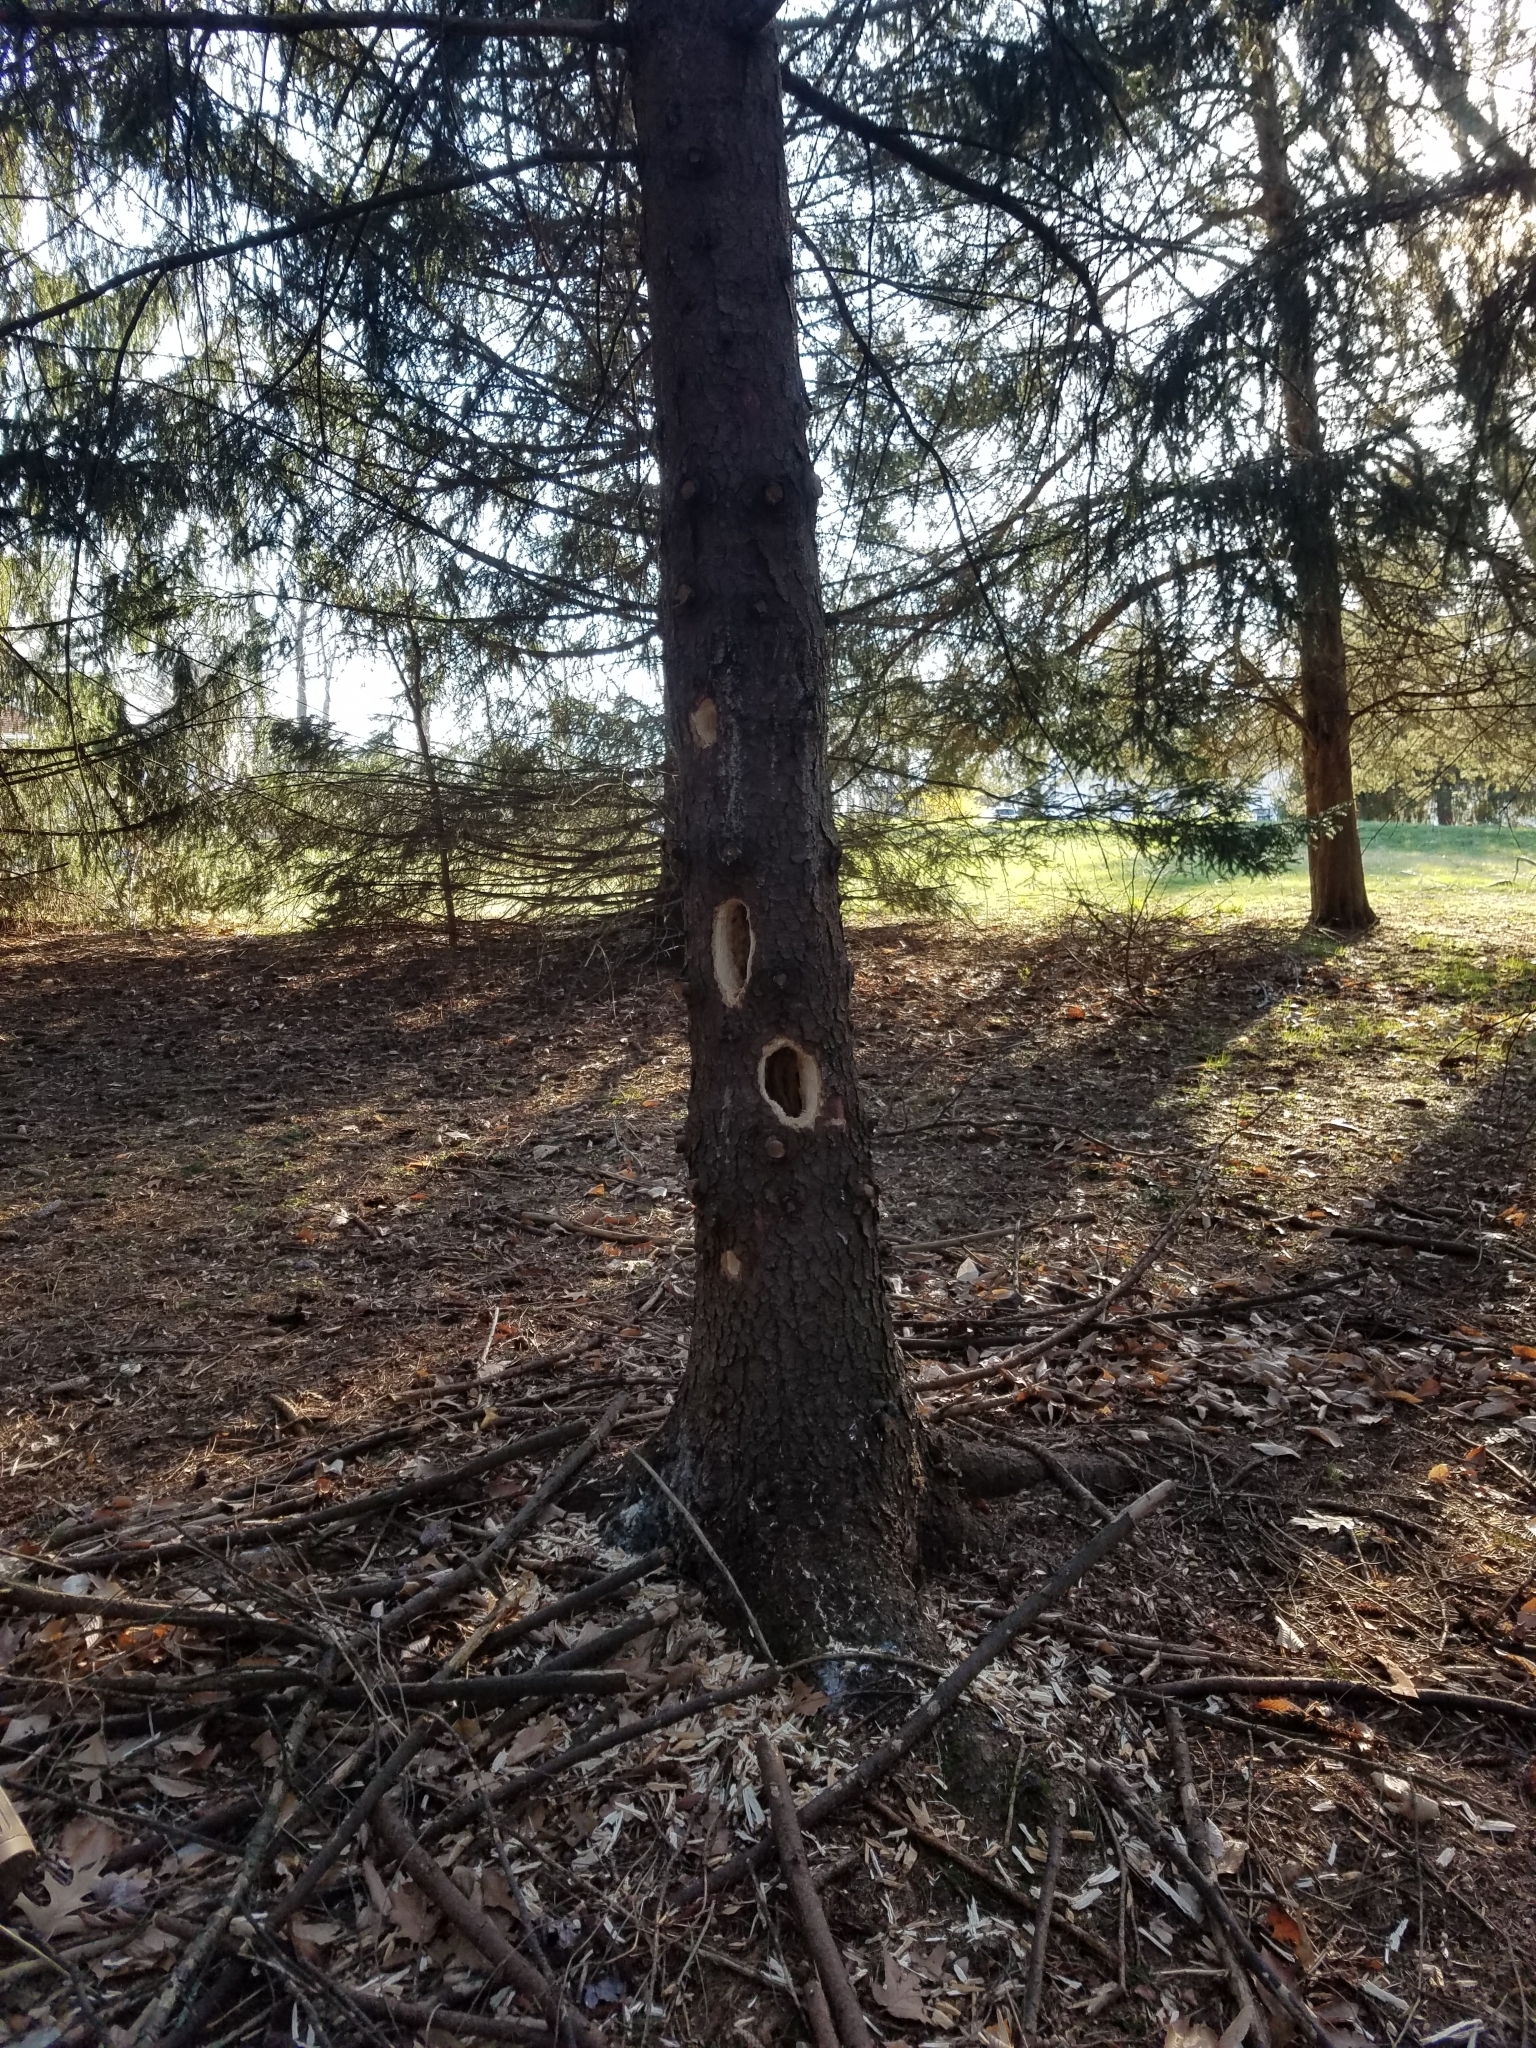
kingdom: Animalia
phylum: Chordata
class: Aves
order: Piciformes
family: Picidae
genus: Dryocopus
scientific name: Dryocopus pileatus
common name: Pileated woodpecker
